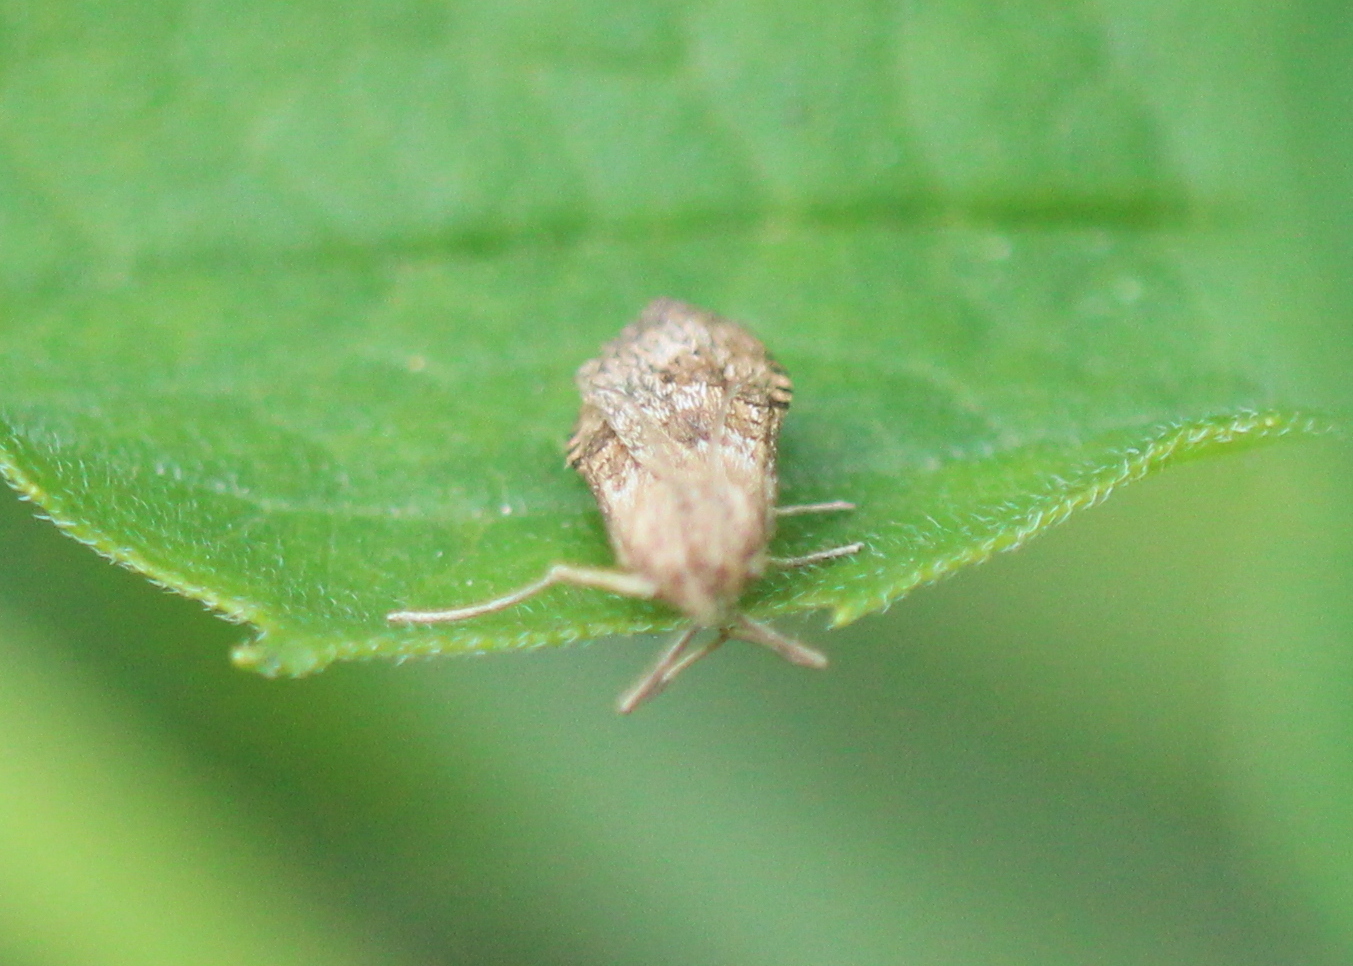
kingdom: Animalia
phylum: Arthropoda
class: Insecta
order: Lepidoptera
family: Crambidae
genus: Nomophila
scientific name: Nomophila nearctica
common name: American rush veneer
